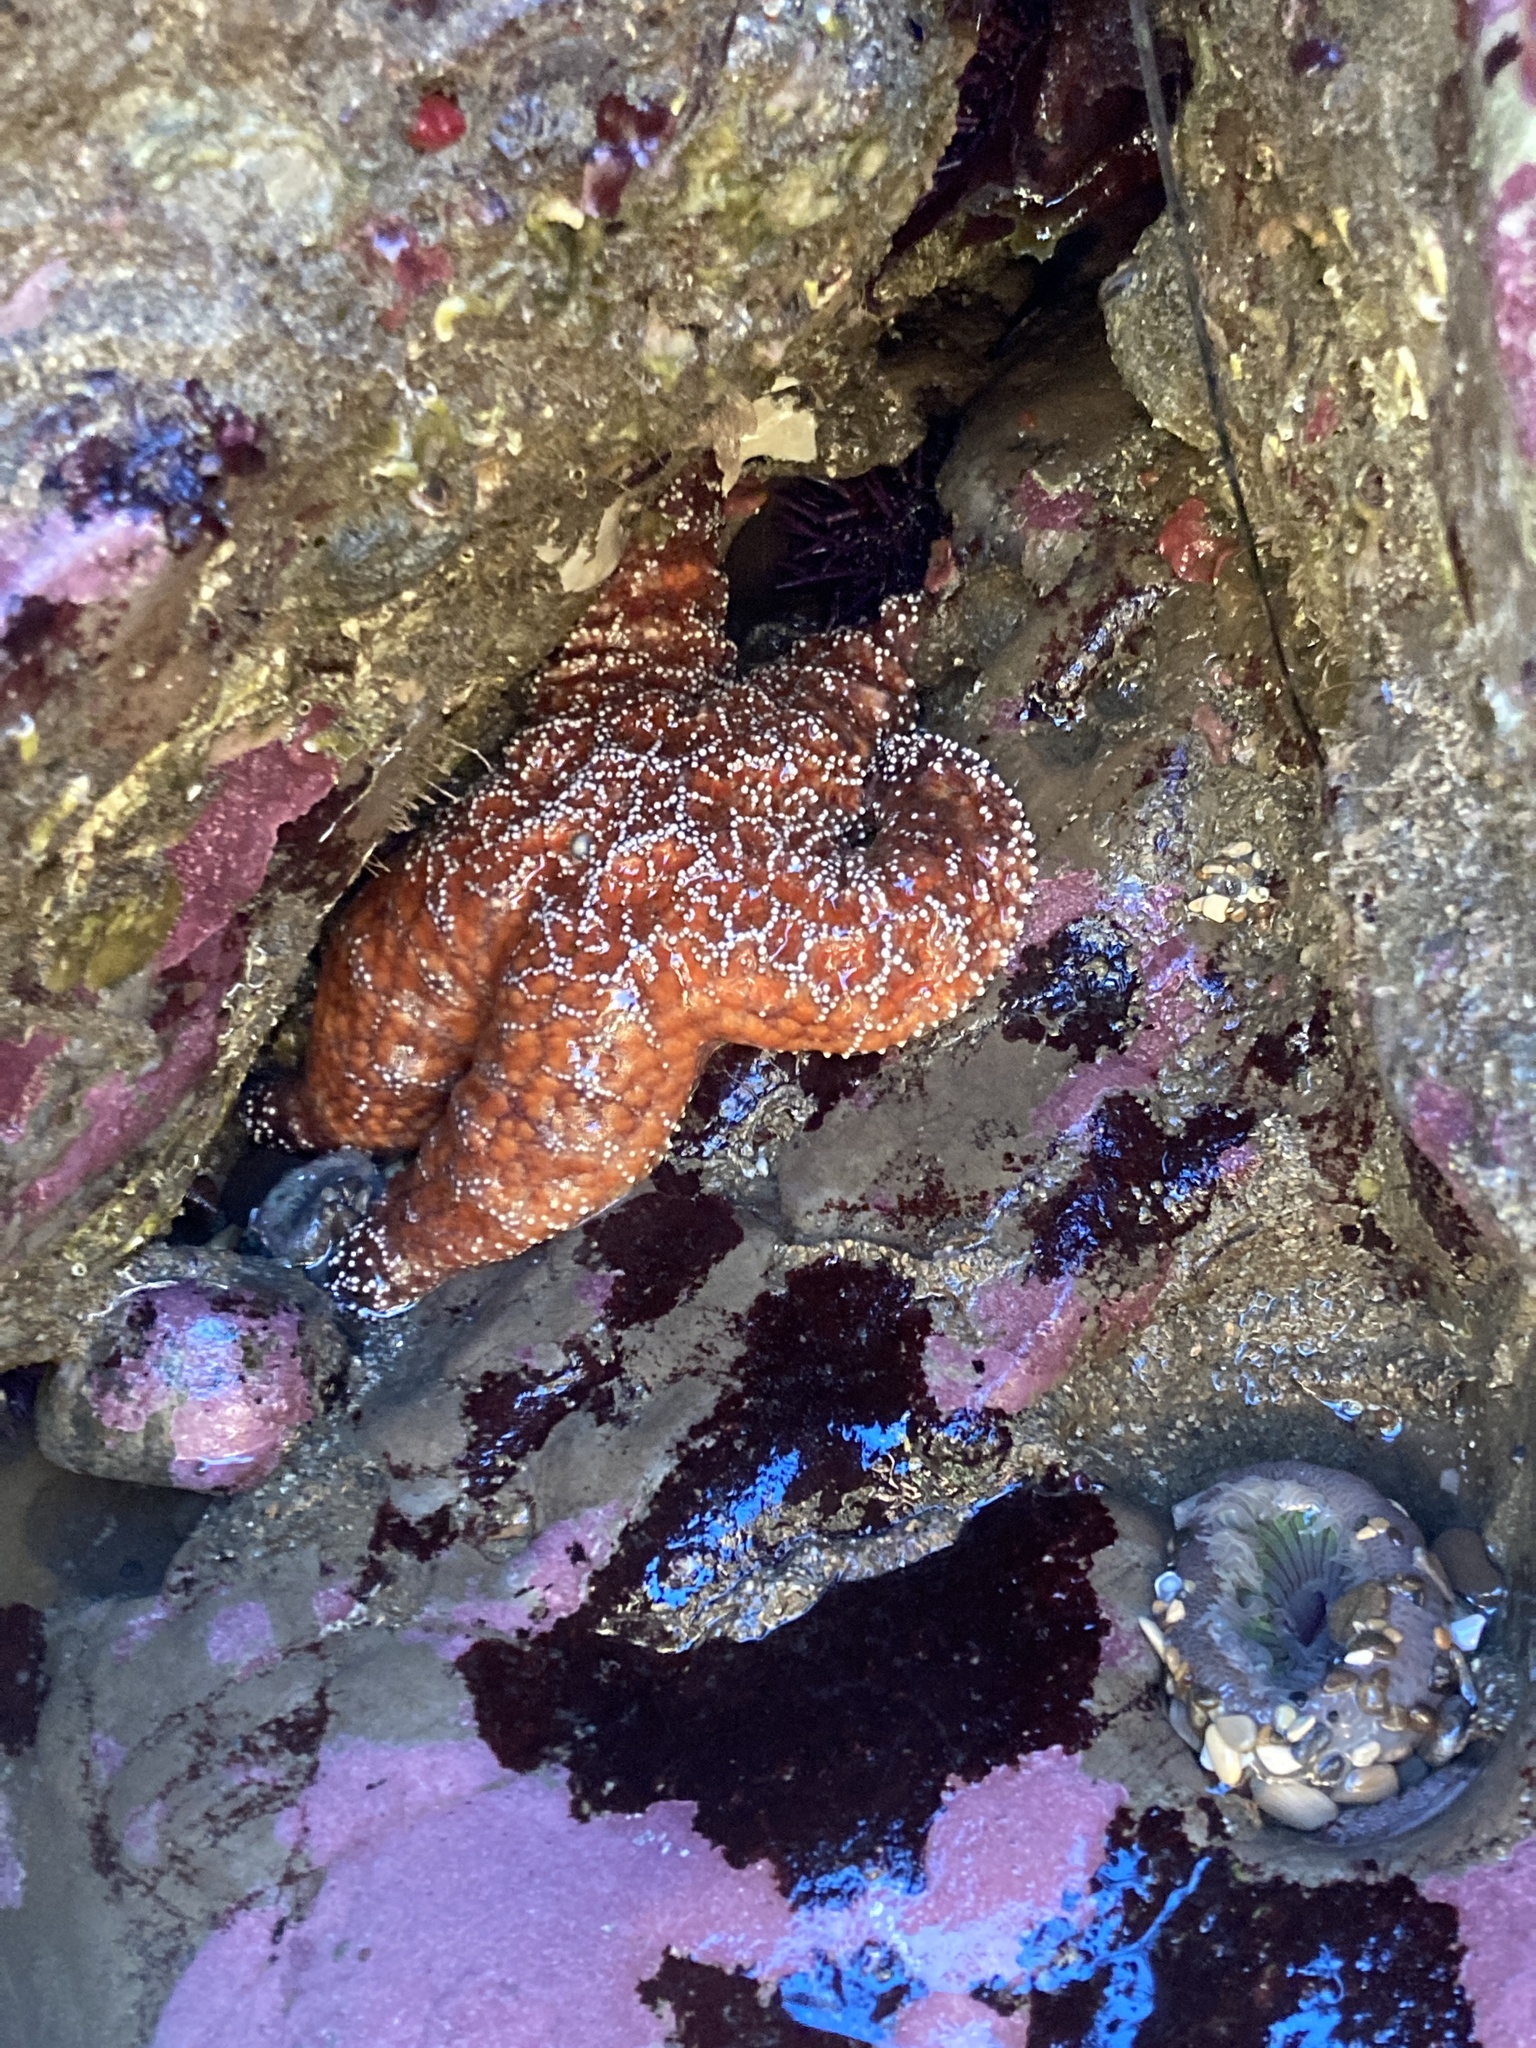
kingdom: Animalia
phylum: Echinodermata
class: Asteroidea
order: Forcipulatida
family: Asteriidae
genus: Pisaster
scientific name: Pisaster ochraceus
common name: Ochre stars
